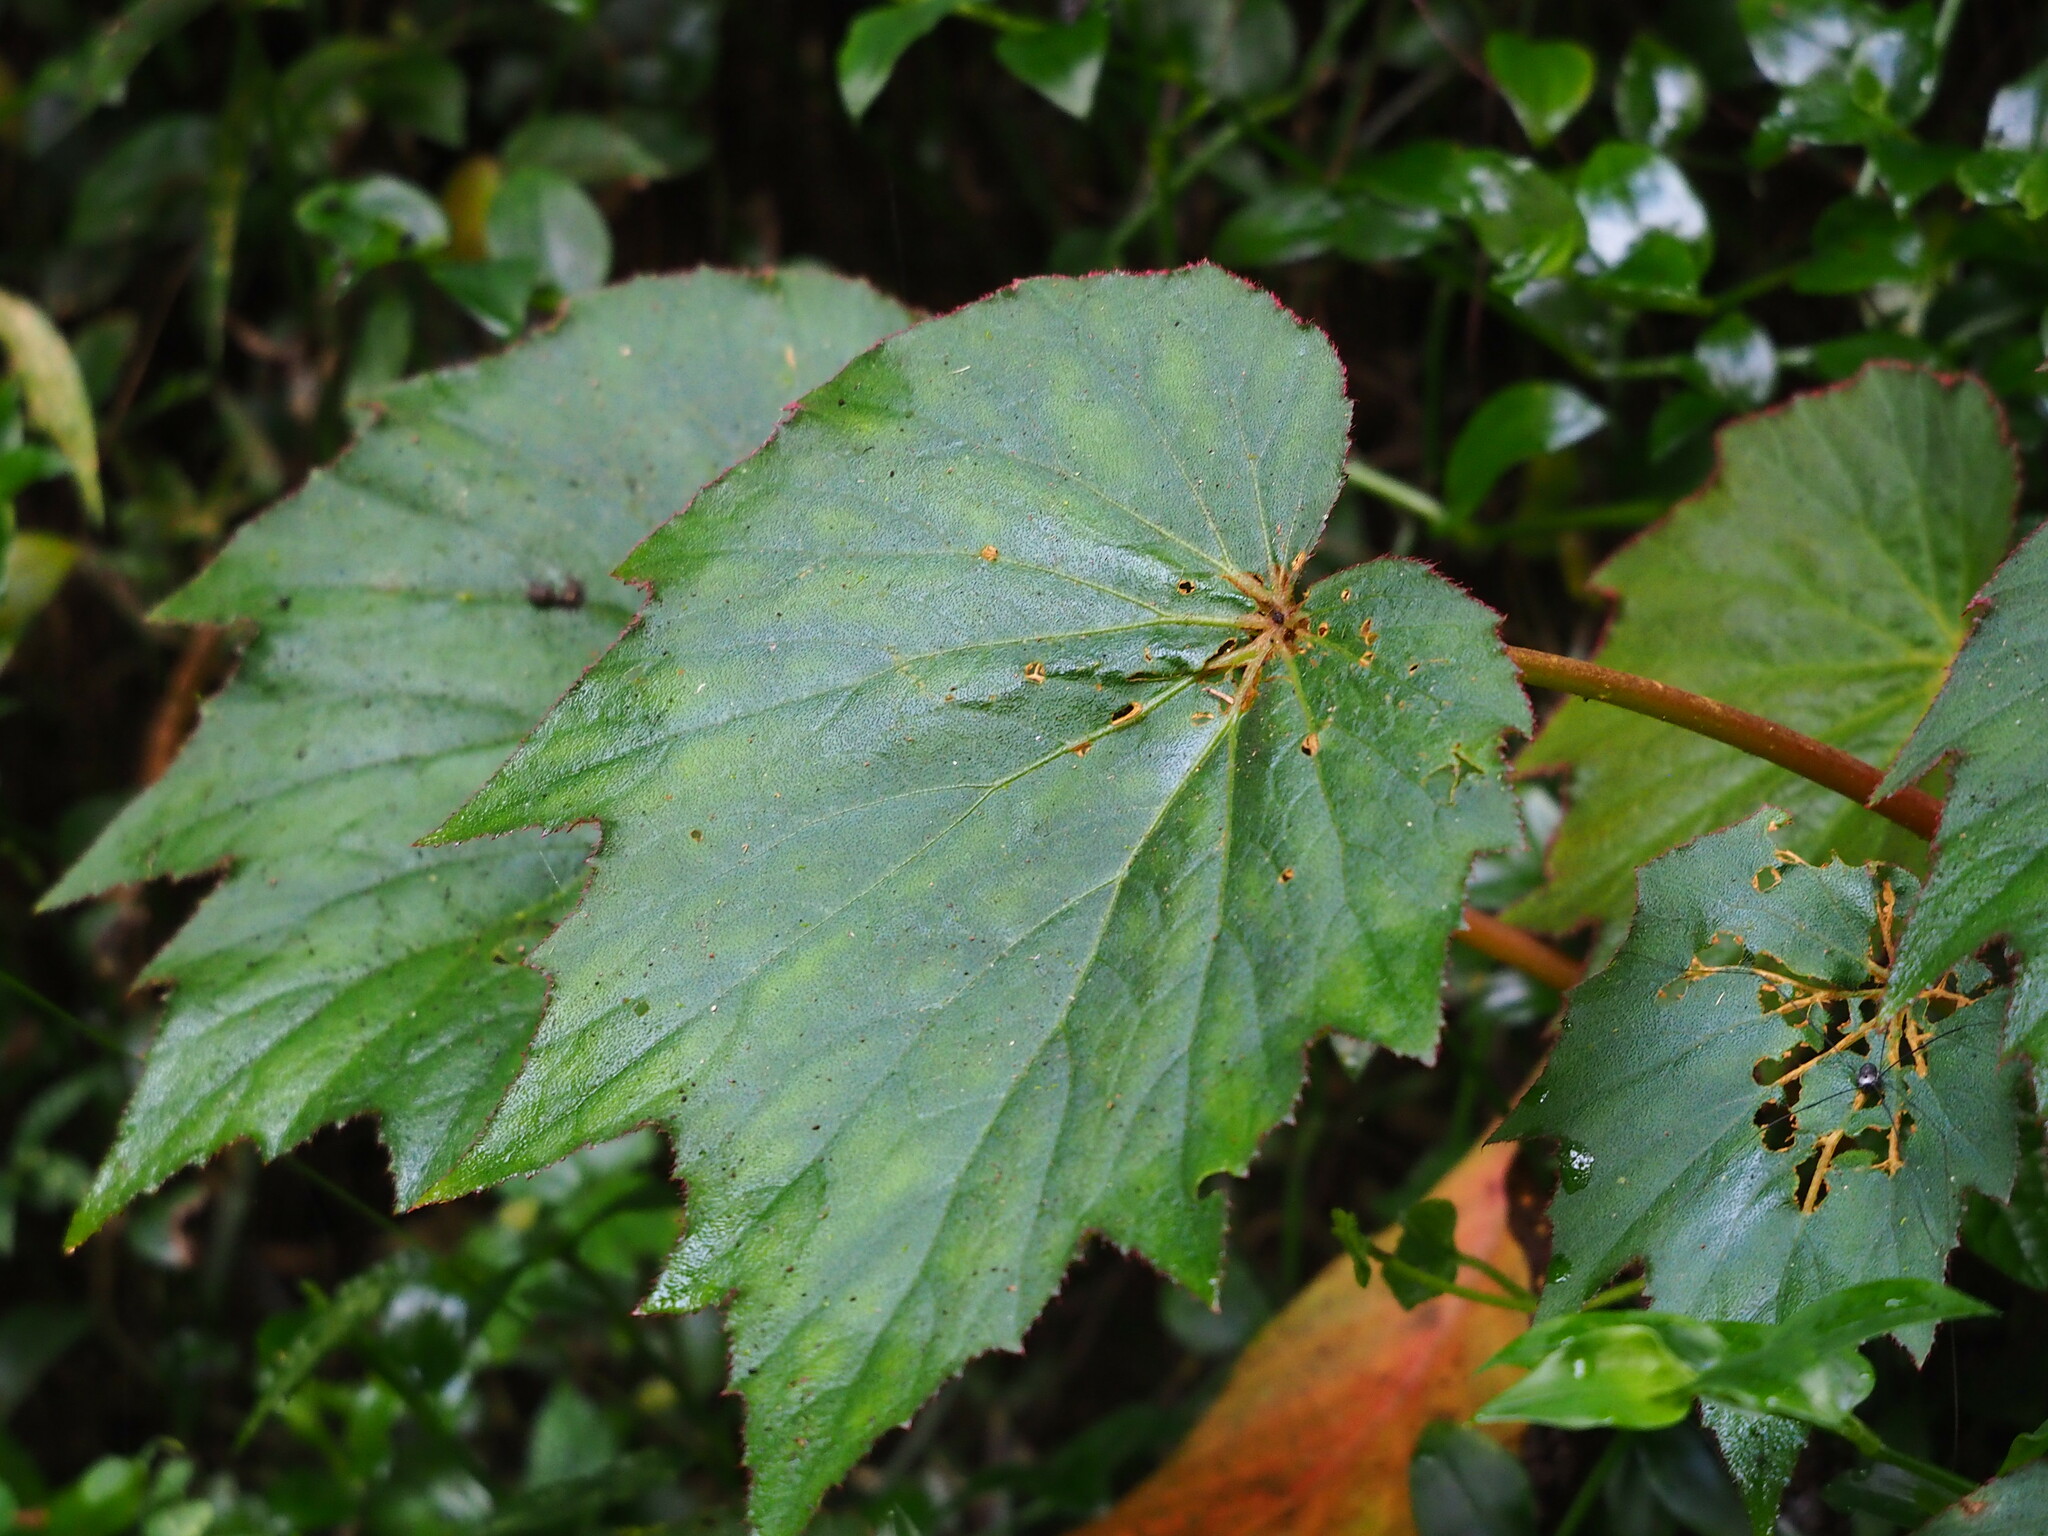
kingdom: Plantae
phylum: Tracheophyta
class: Magnoliopsida
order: Cucurbitales
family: Begoniaceae
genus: Begonia
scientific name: Begonia palmata
